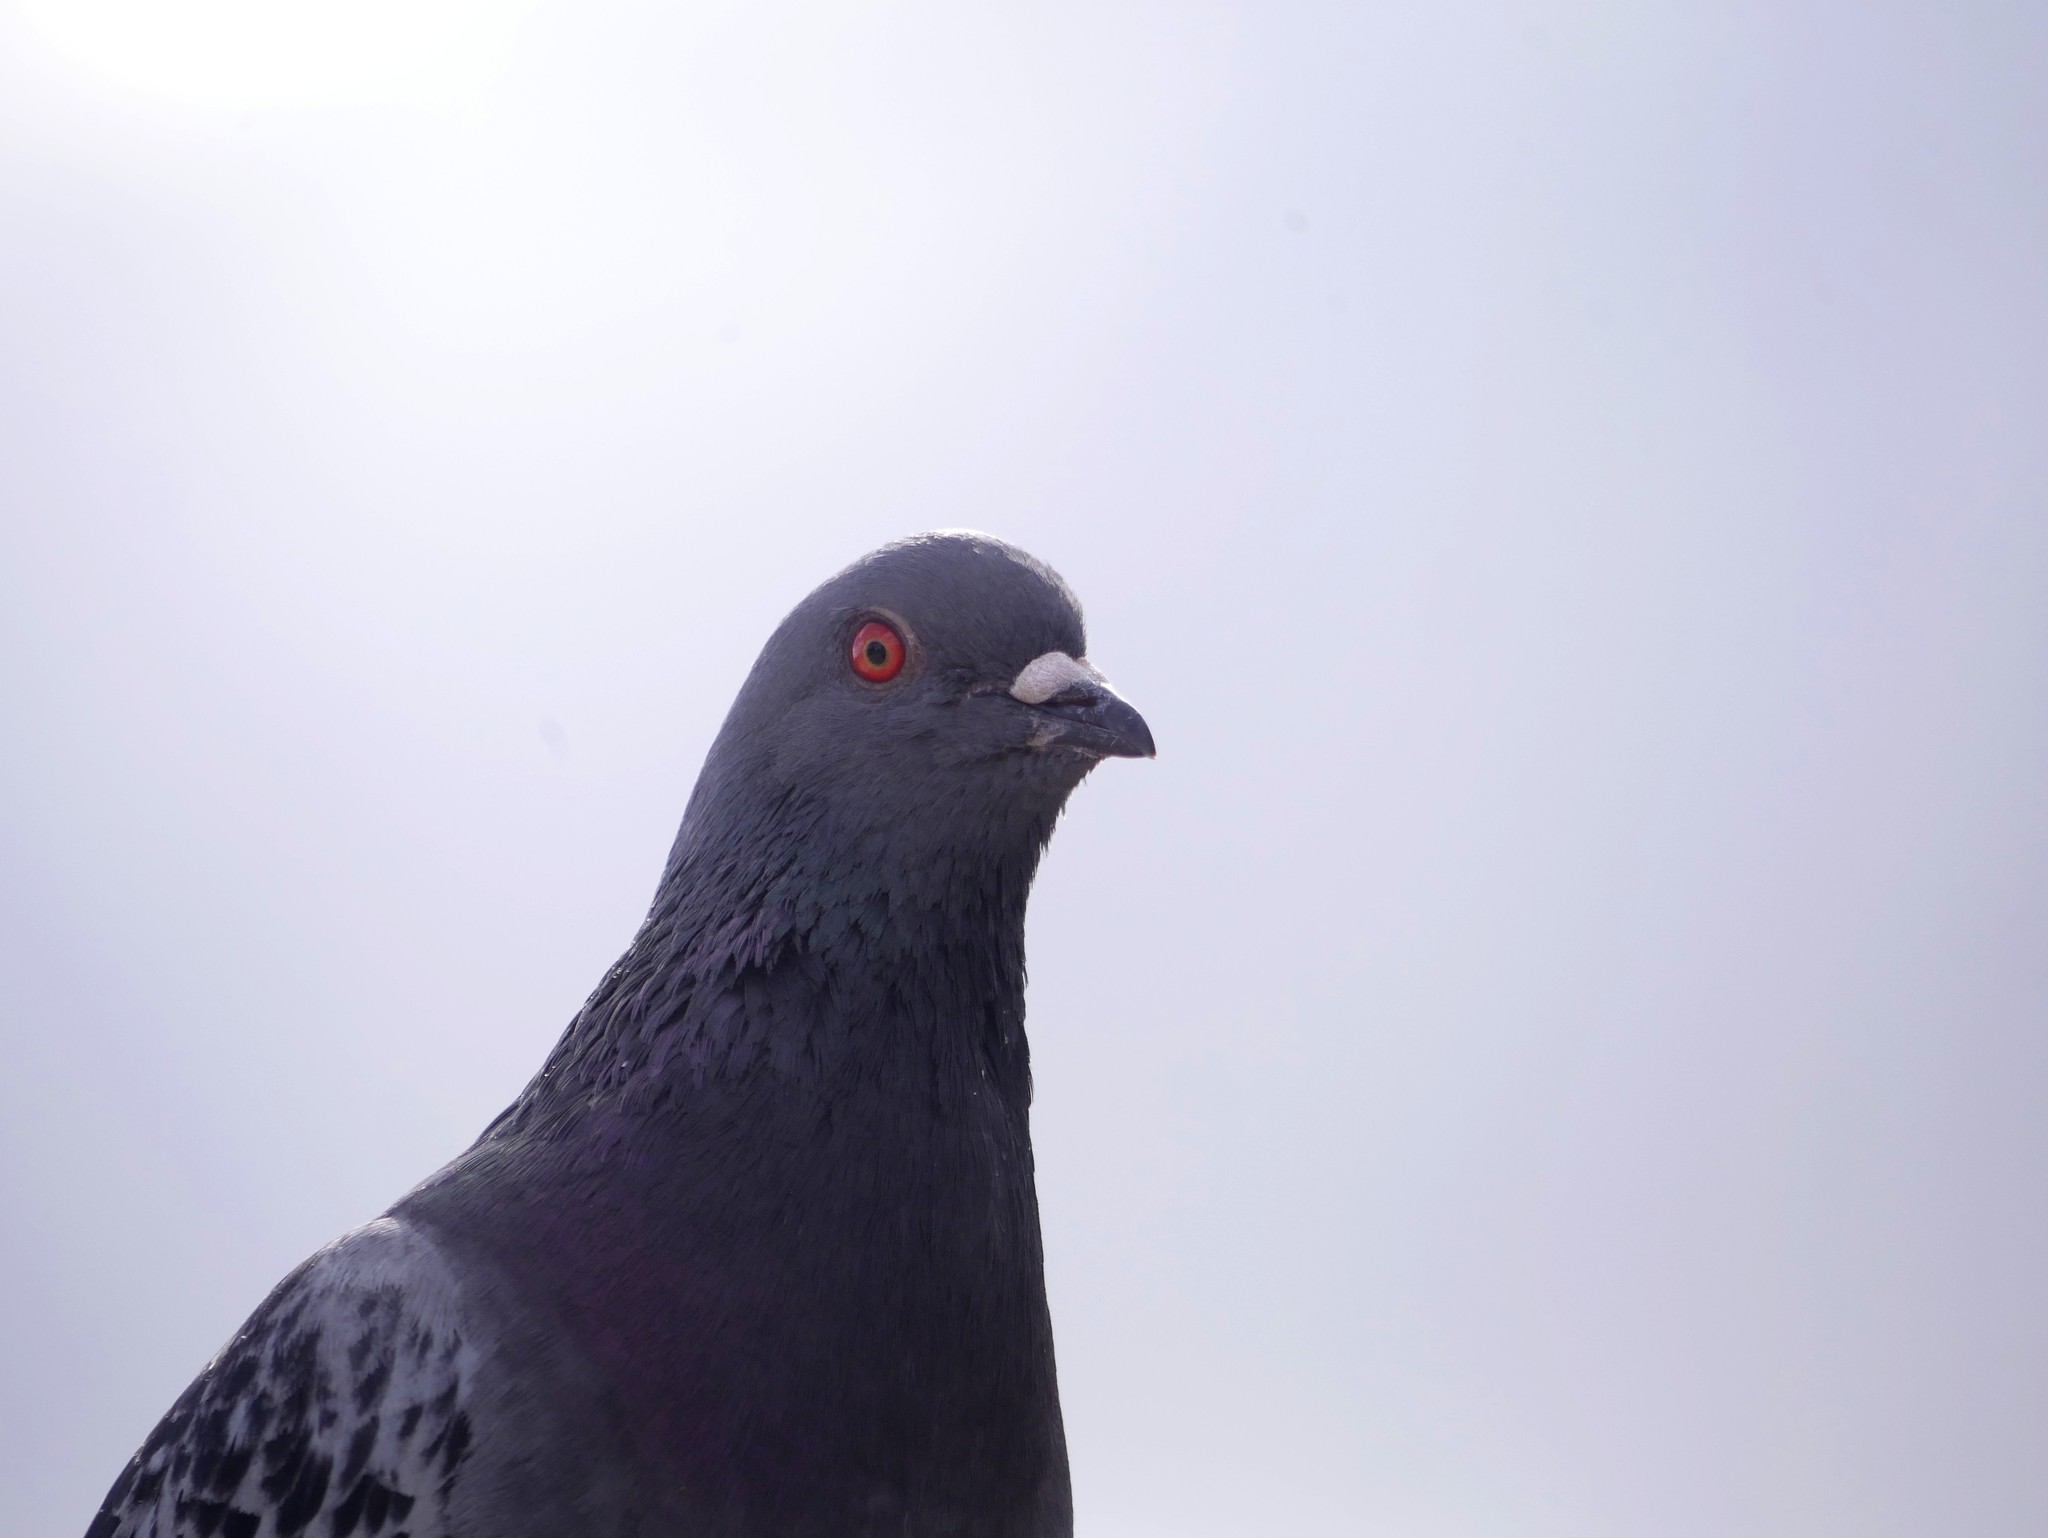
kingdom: Animalia
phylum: Chordata
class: Aves
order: Columbiformes
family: Columbidae
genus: Columba
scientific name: Columba livia
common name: Rock pigeon
